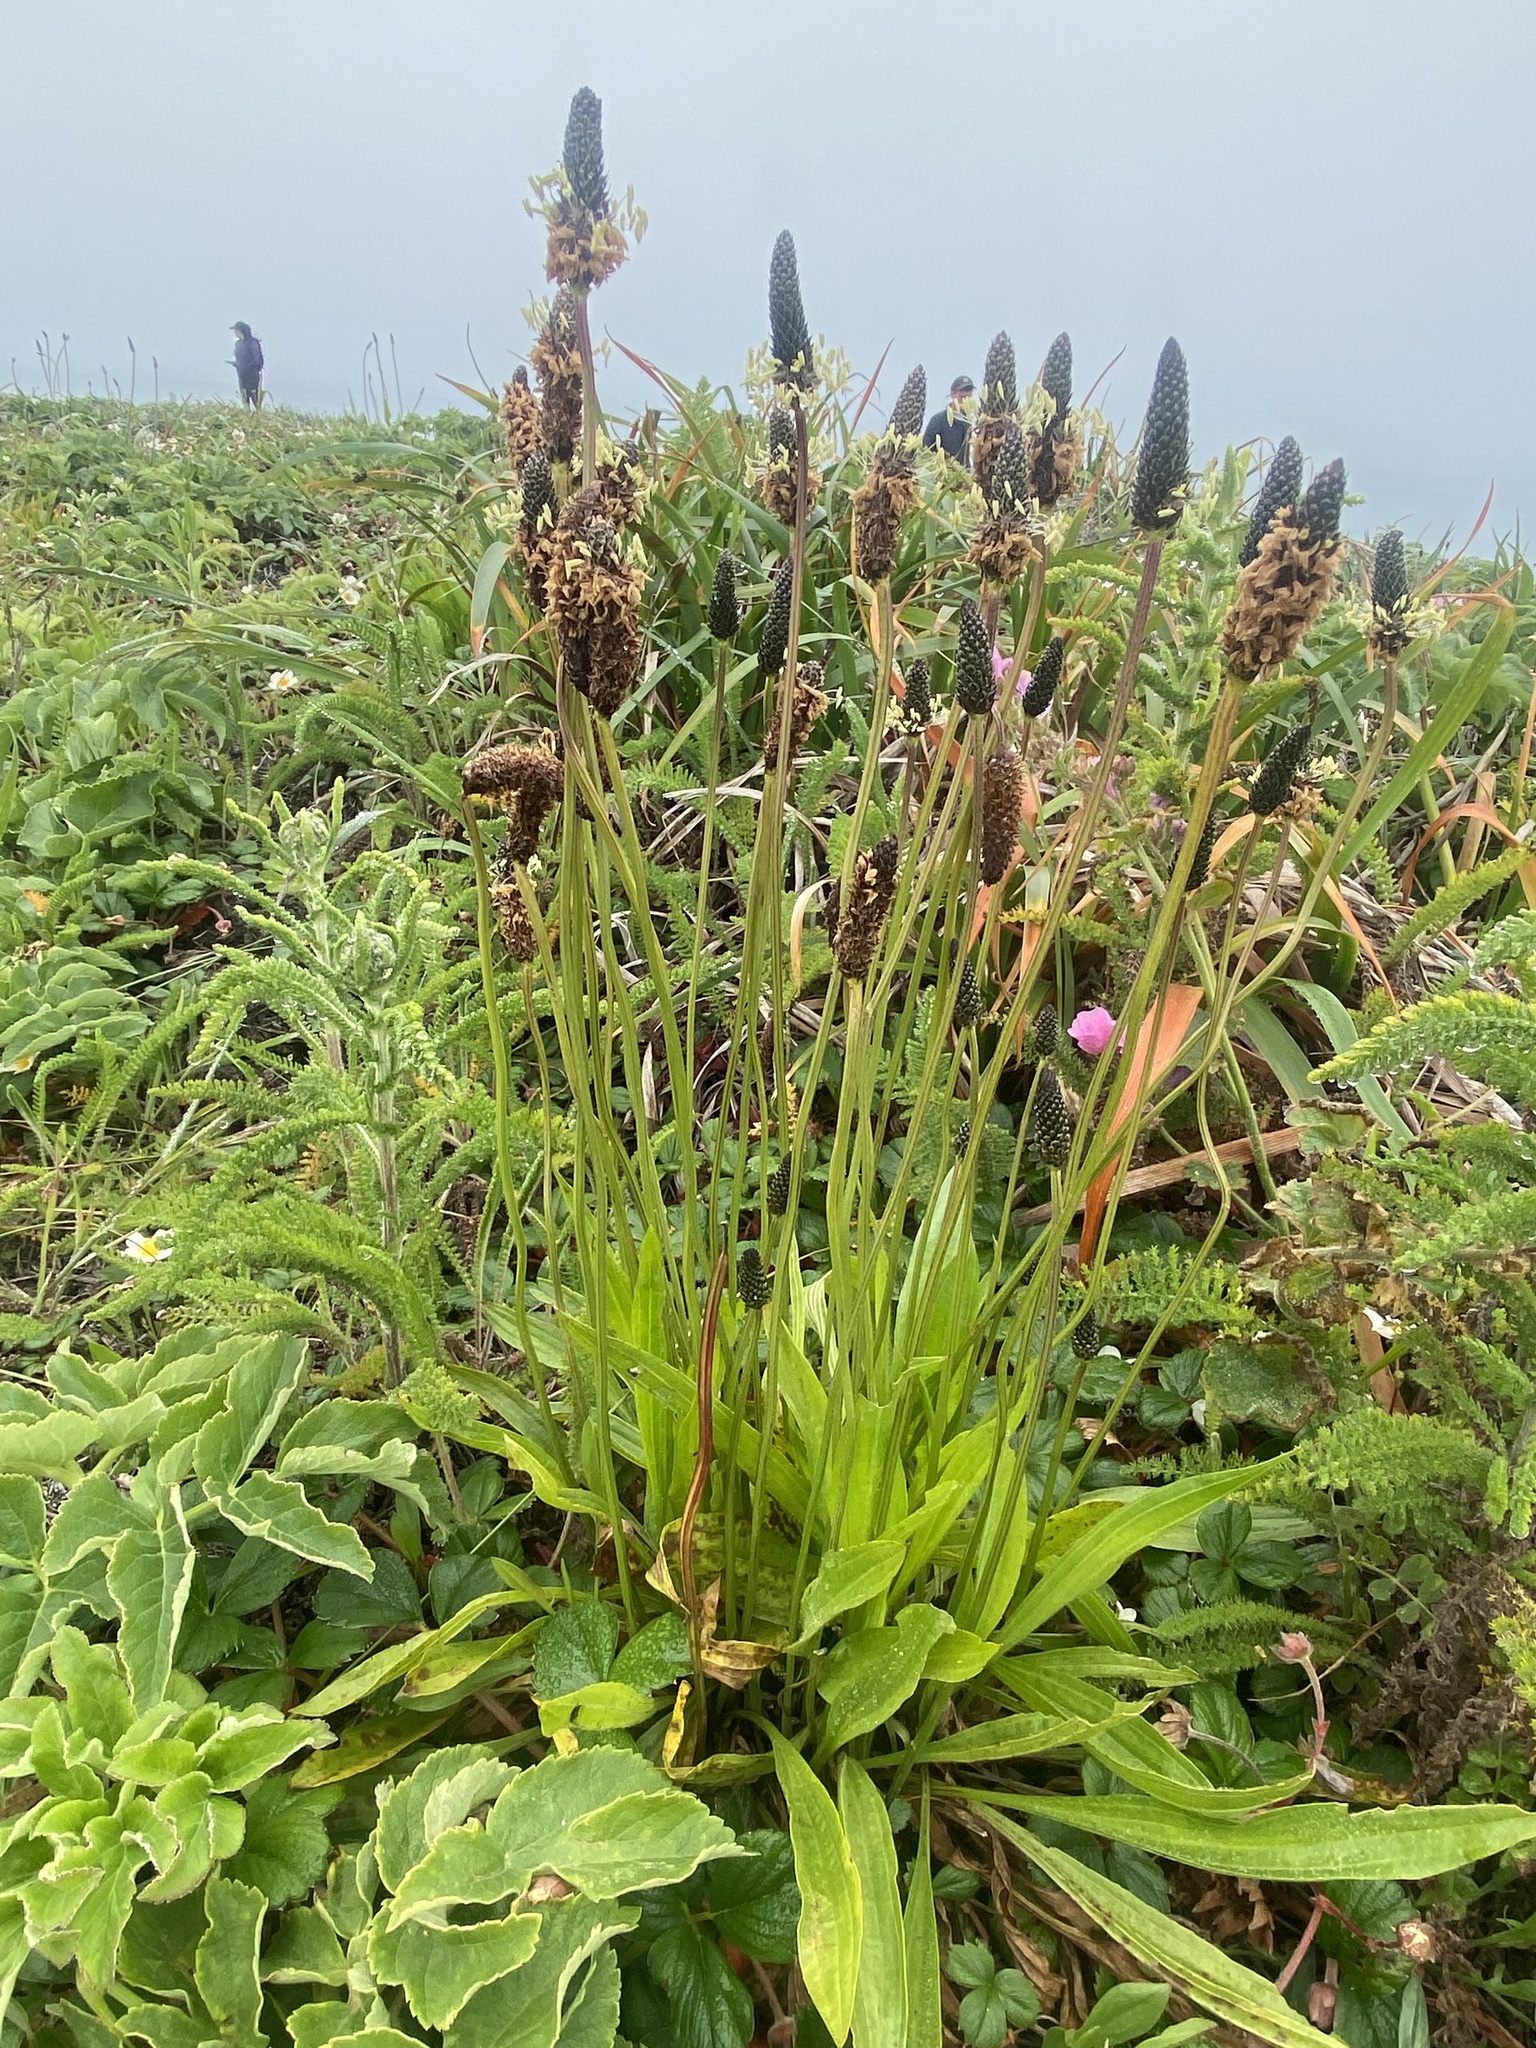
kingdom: Plantae
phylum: Tracheophyta
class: Magnoliopsida
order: Lamiales
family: Plantaginaceae
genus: Plantago
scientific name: Plantago lanceolata
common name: Ribwort plantain
